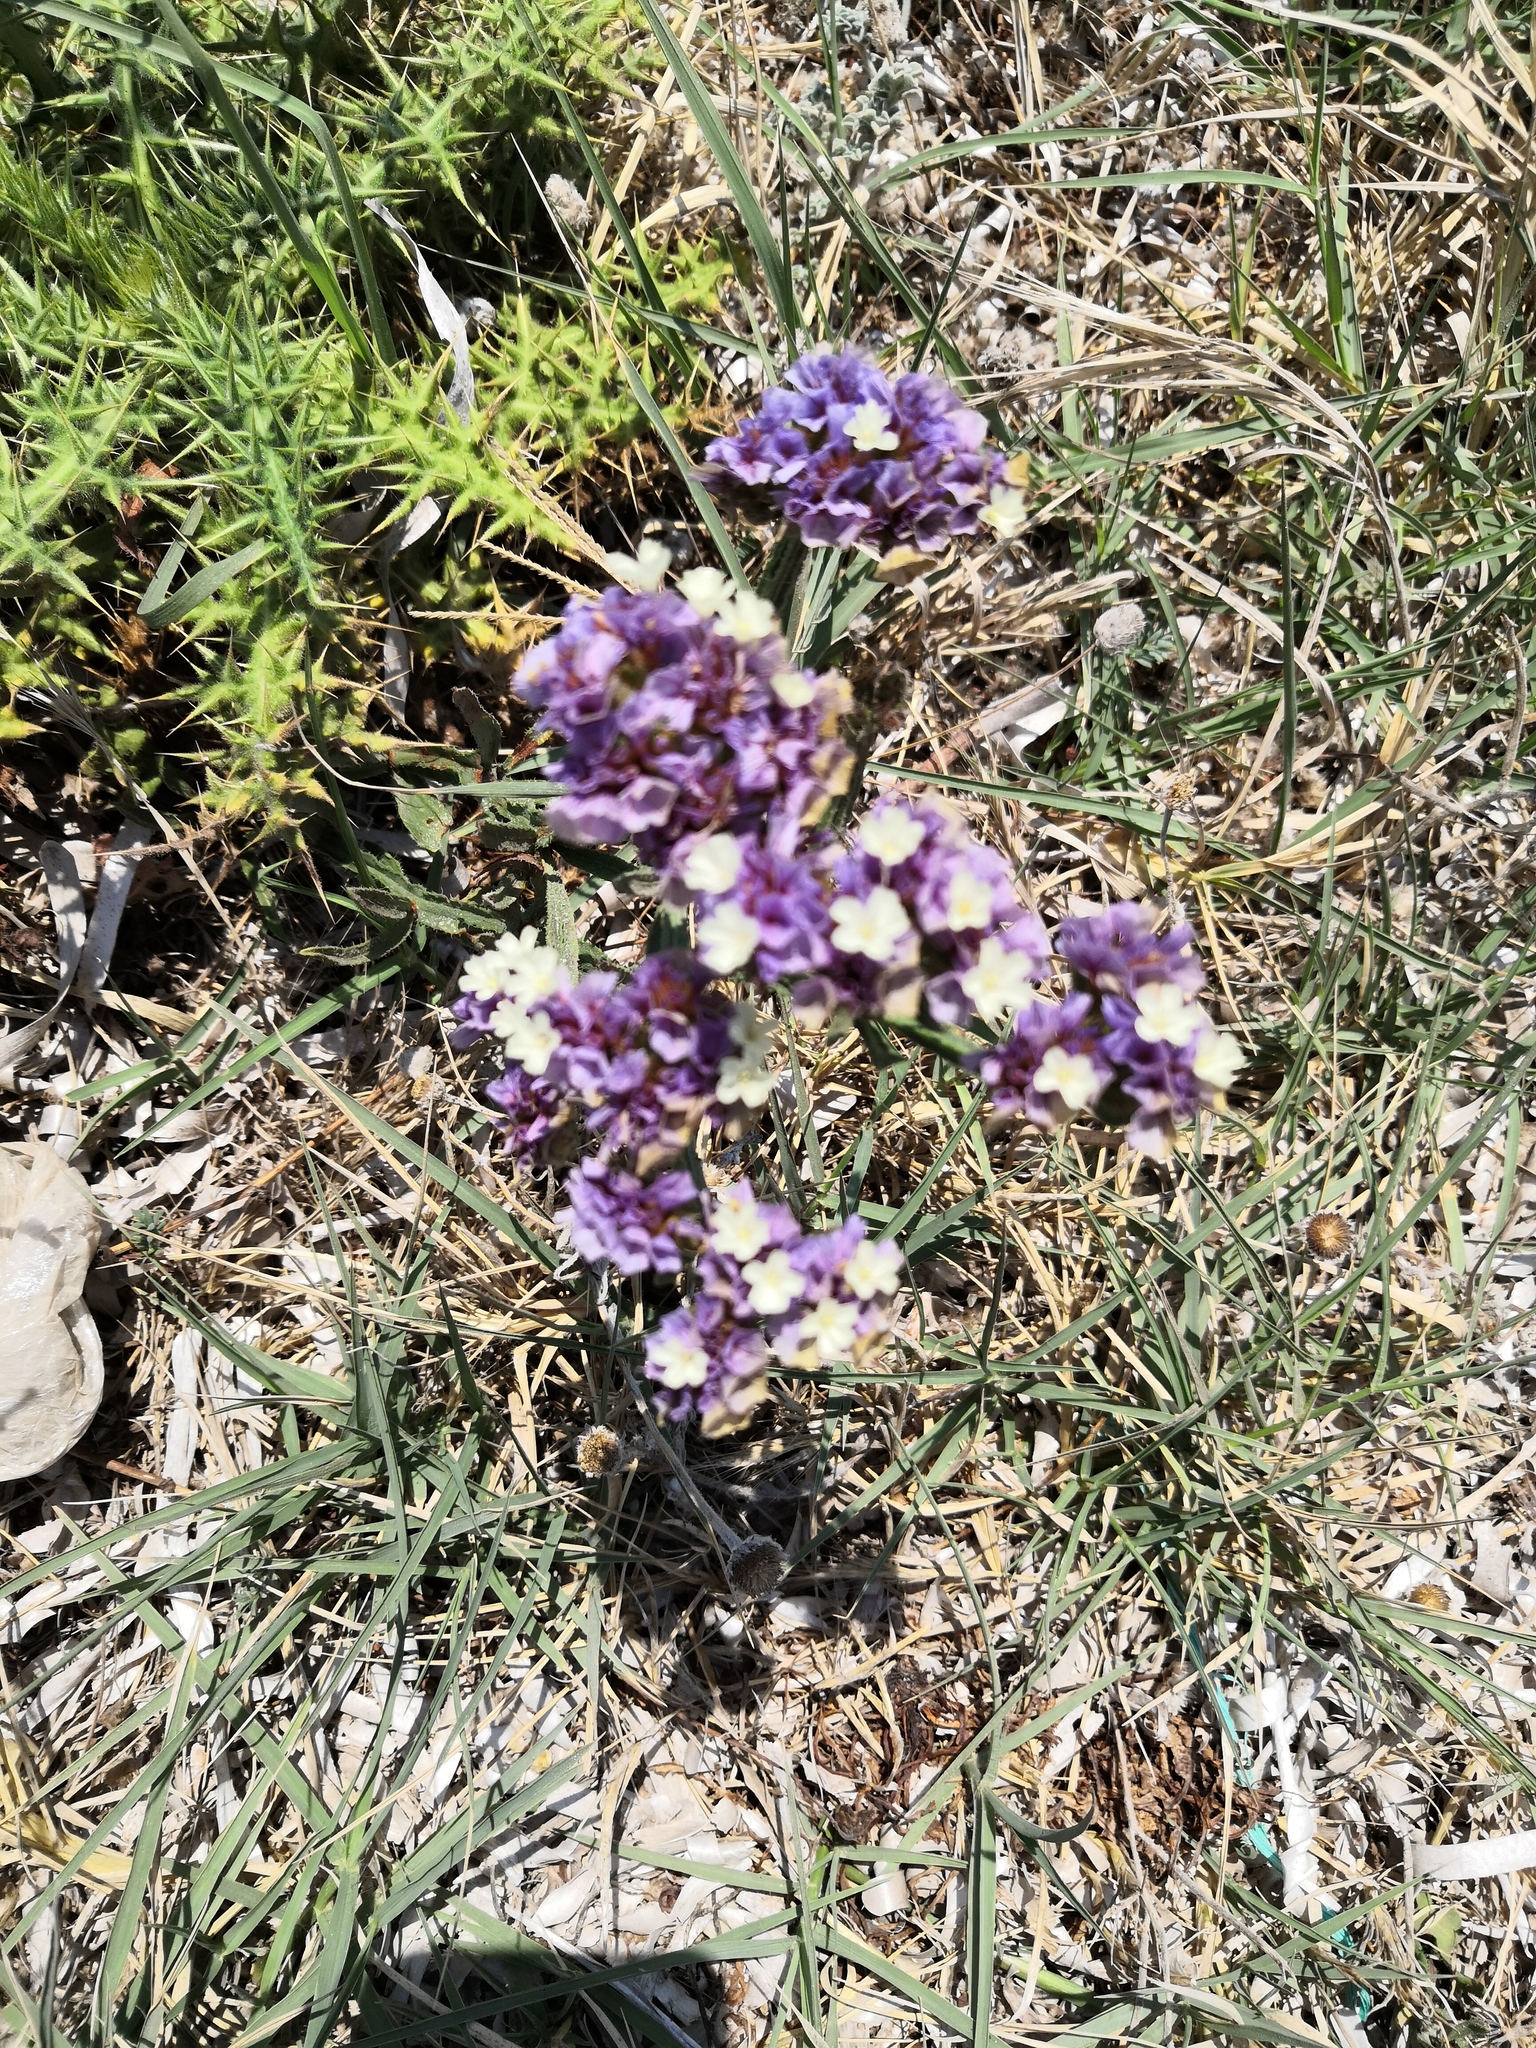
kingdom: Plantae
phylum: Tracheophyta
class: Magnoliopsida
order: Caryophyllales
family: Plumbaginaceae
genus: Limonium
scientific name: Limonium sinuatum
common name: Statice
